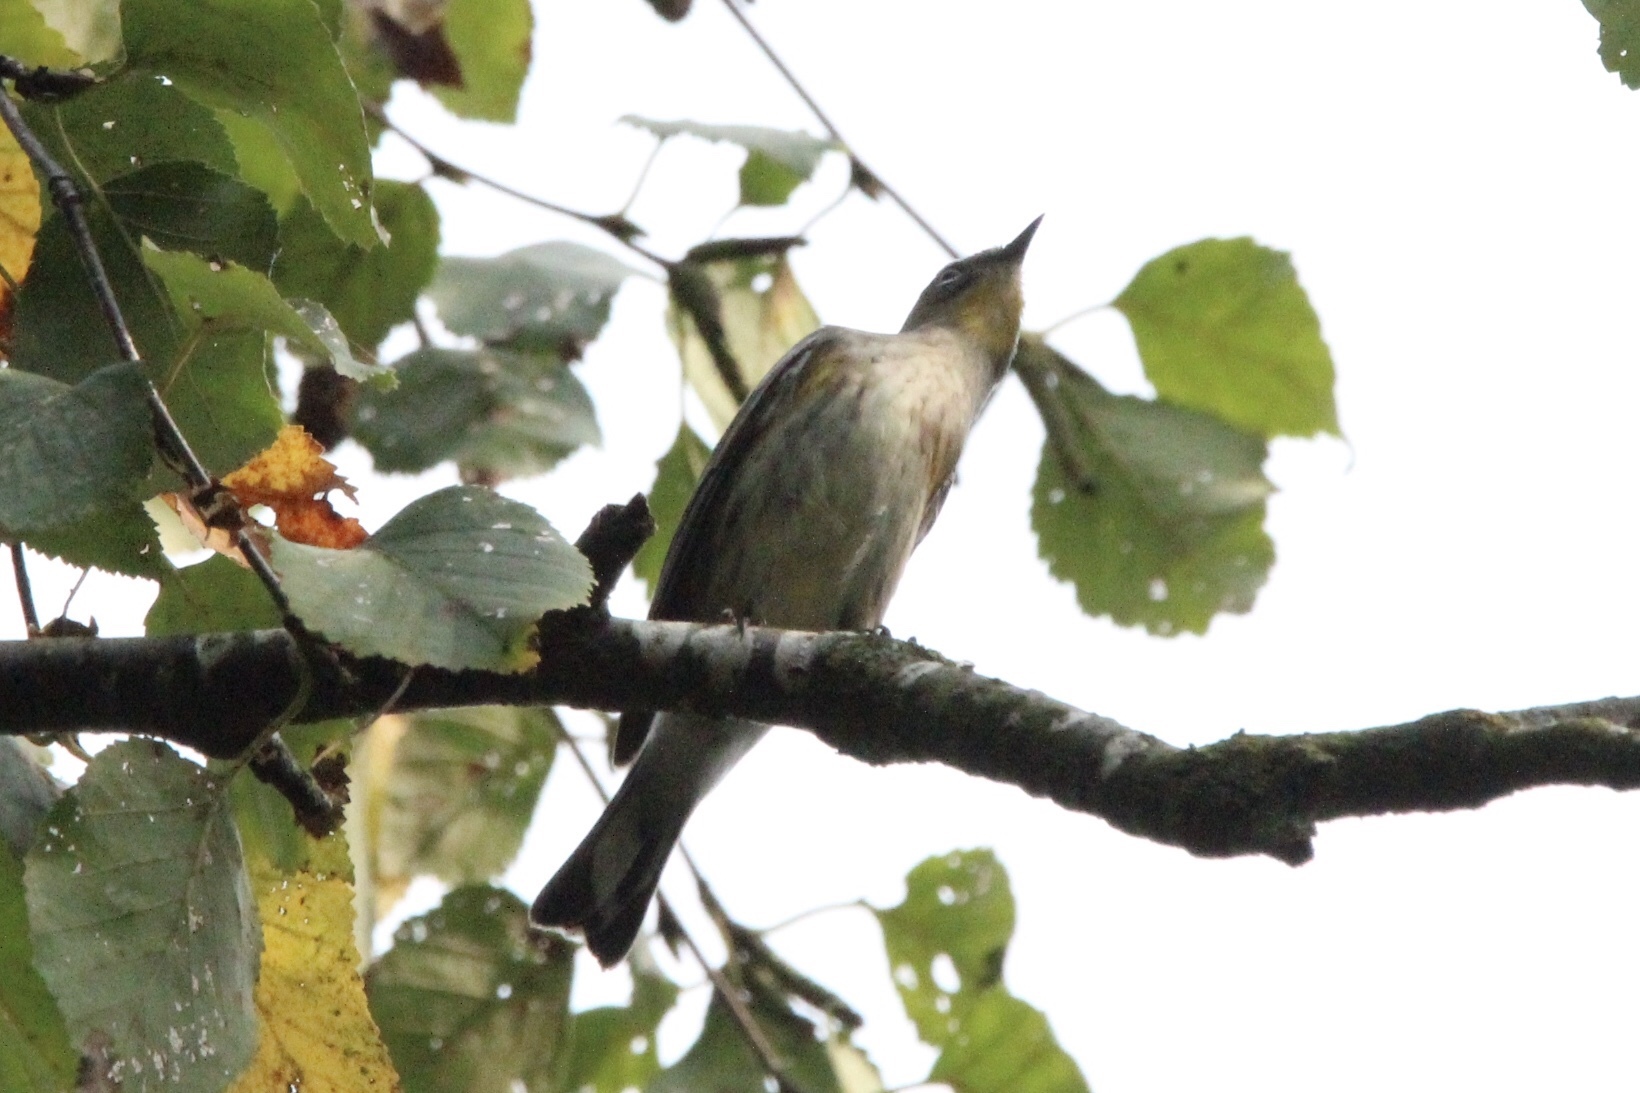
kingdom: Animalia
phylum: Chordata
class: Aves
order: Passeriformes
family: Parulidae
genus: Setophaga
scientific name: Setophaga coronata
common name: Myrtle warbler
